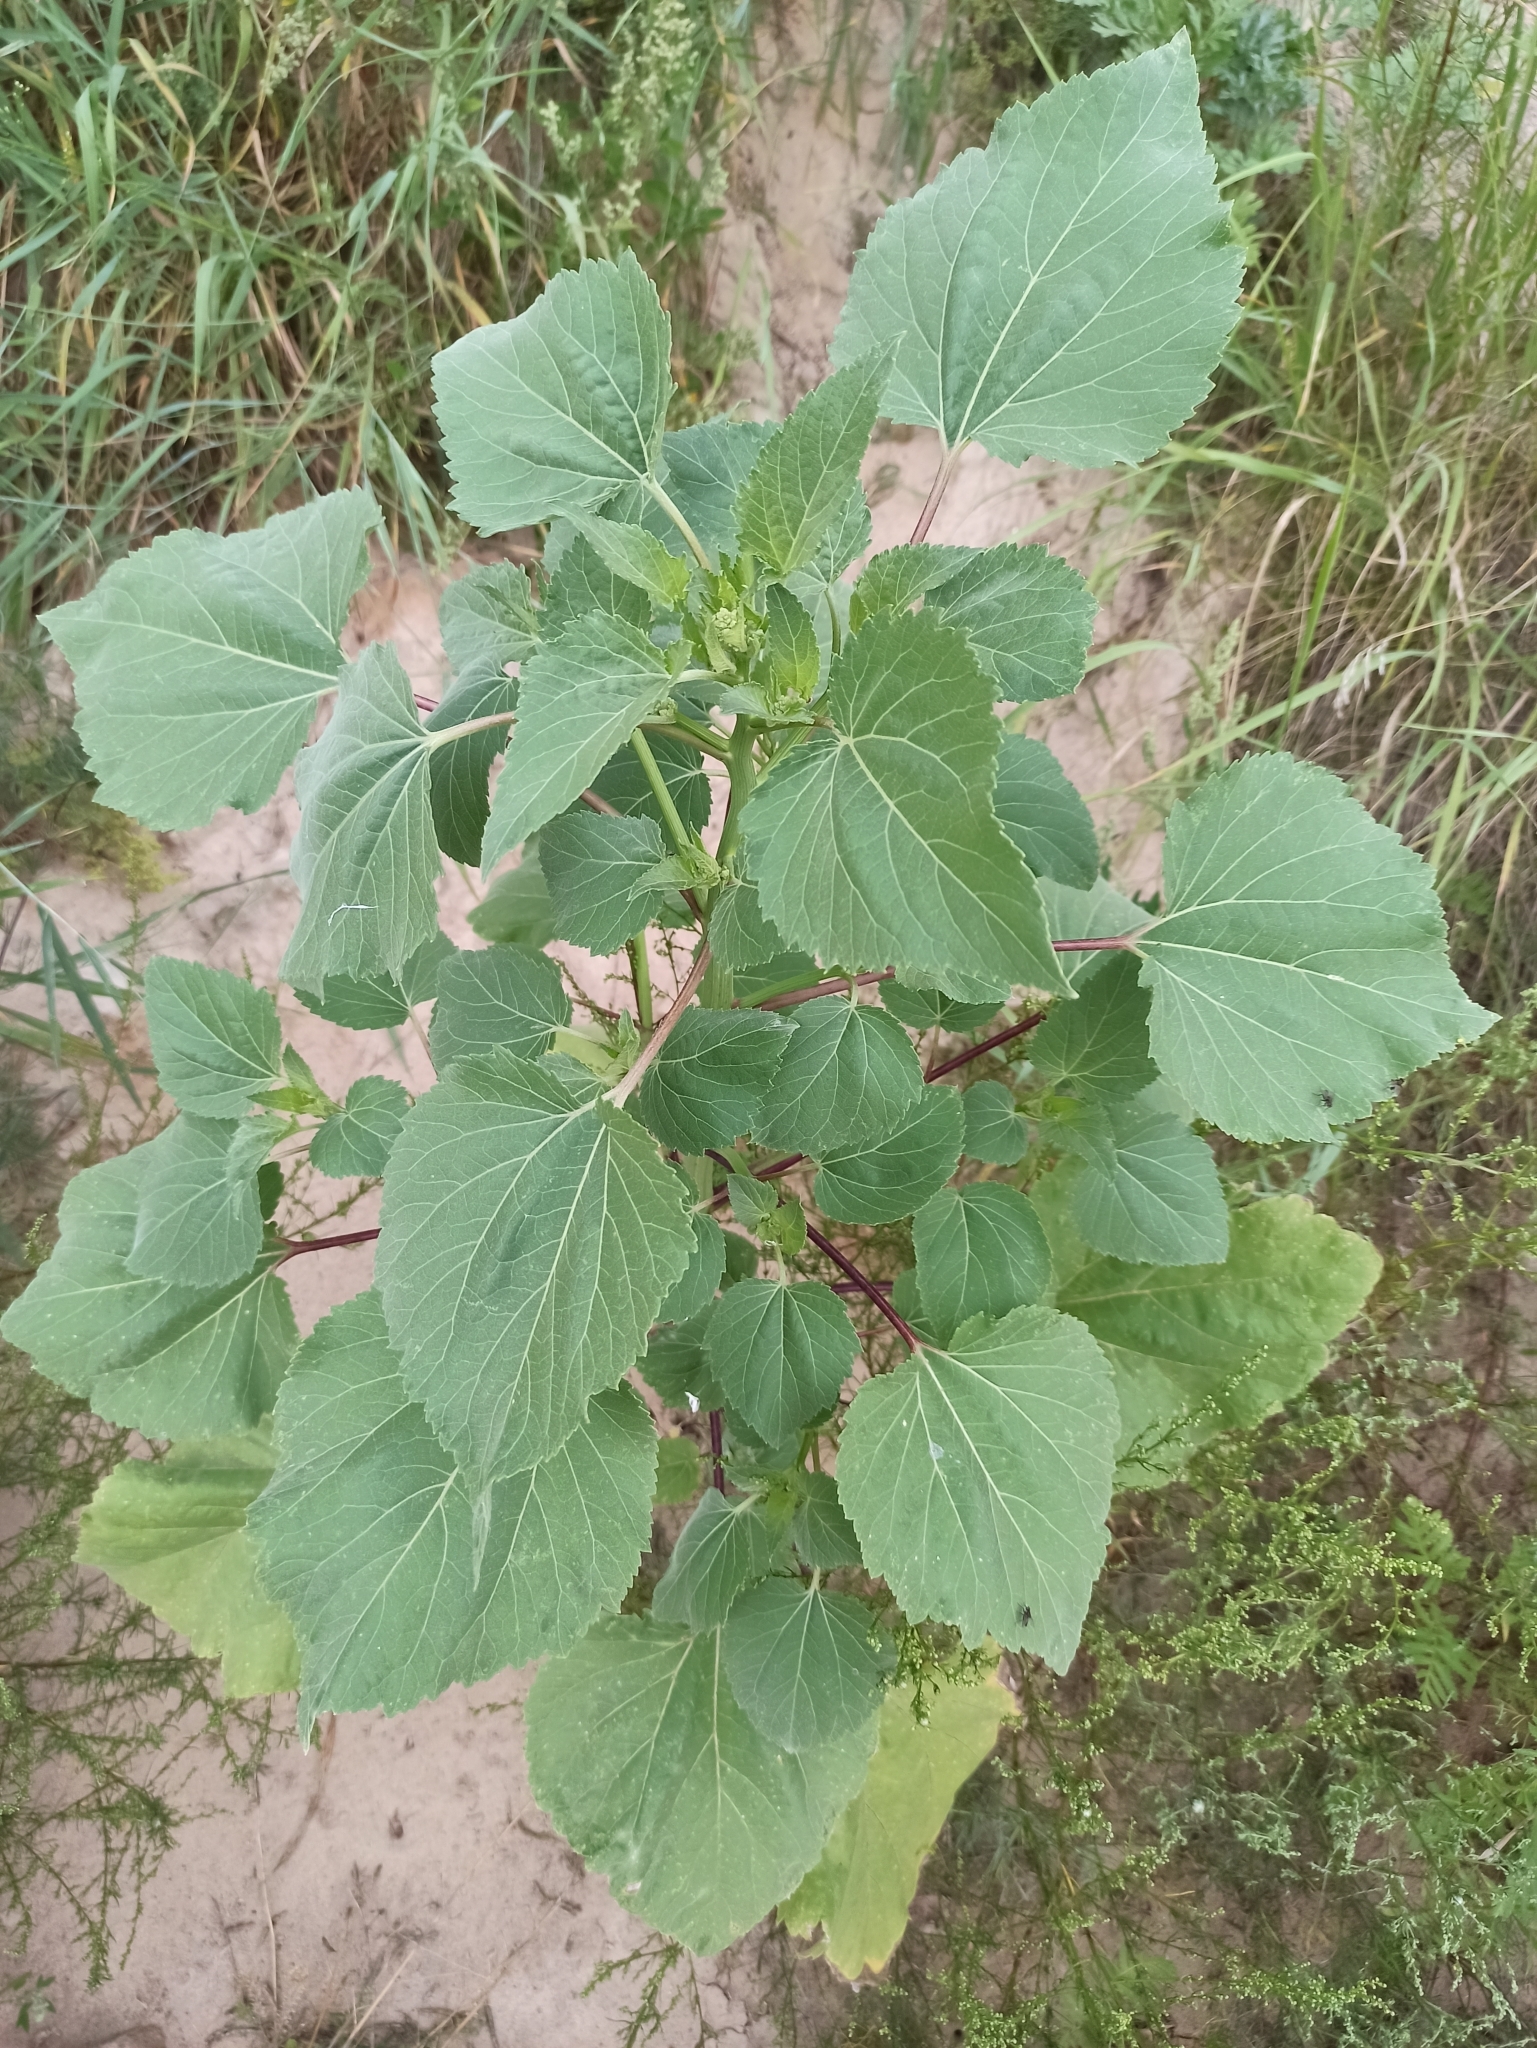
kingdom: Plantae
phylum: Tracheophyta
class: Magnoliopsida
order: Asterales
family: Asteraceae
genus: Cyclachaena
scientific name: Cyclachaena xanthiifolia
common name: Giant sumpweed
